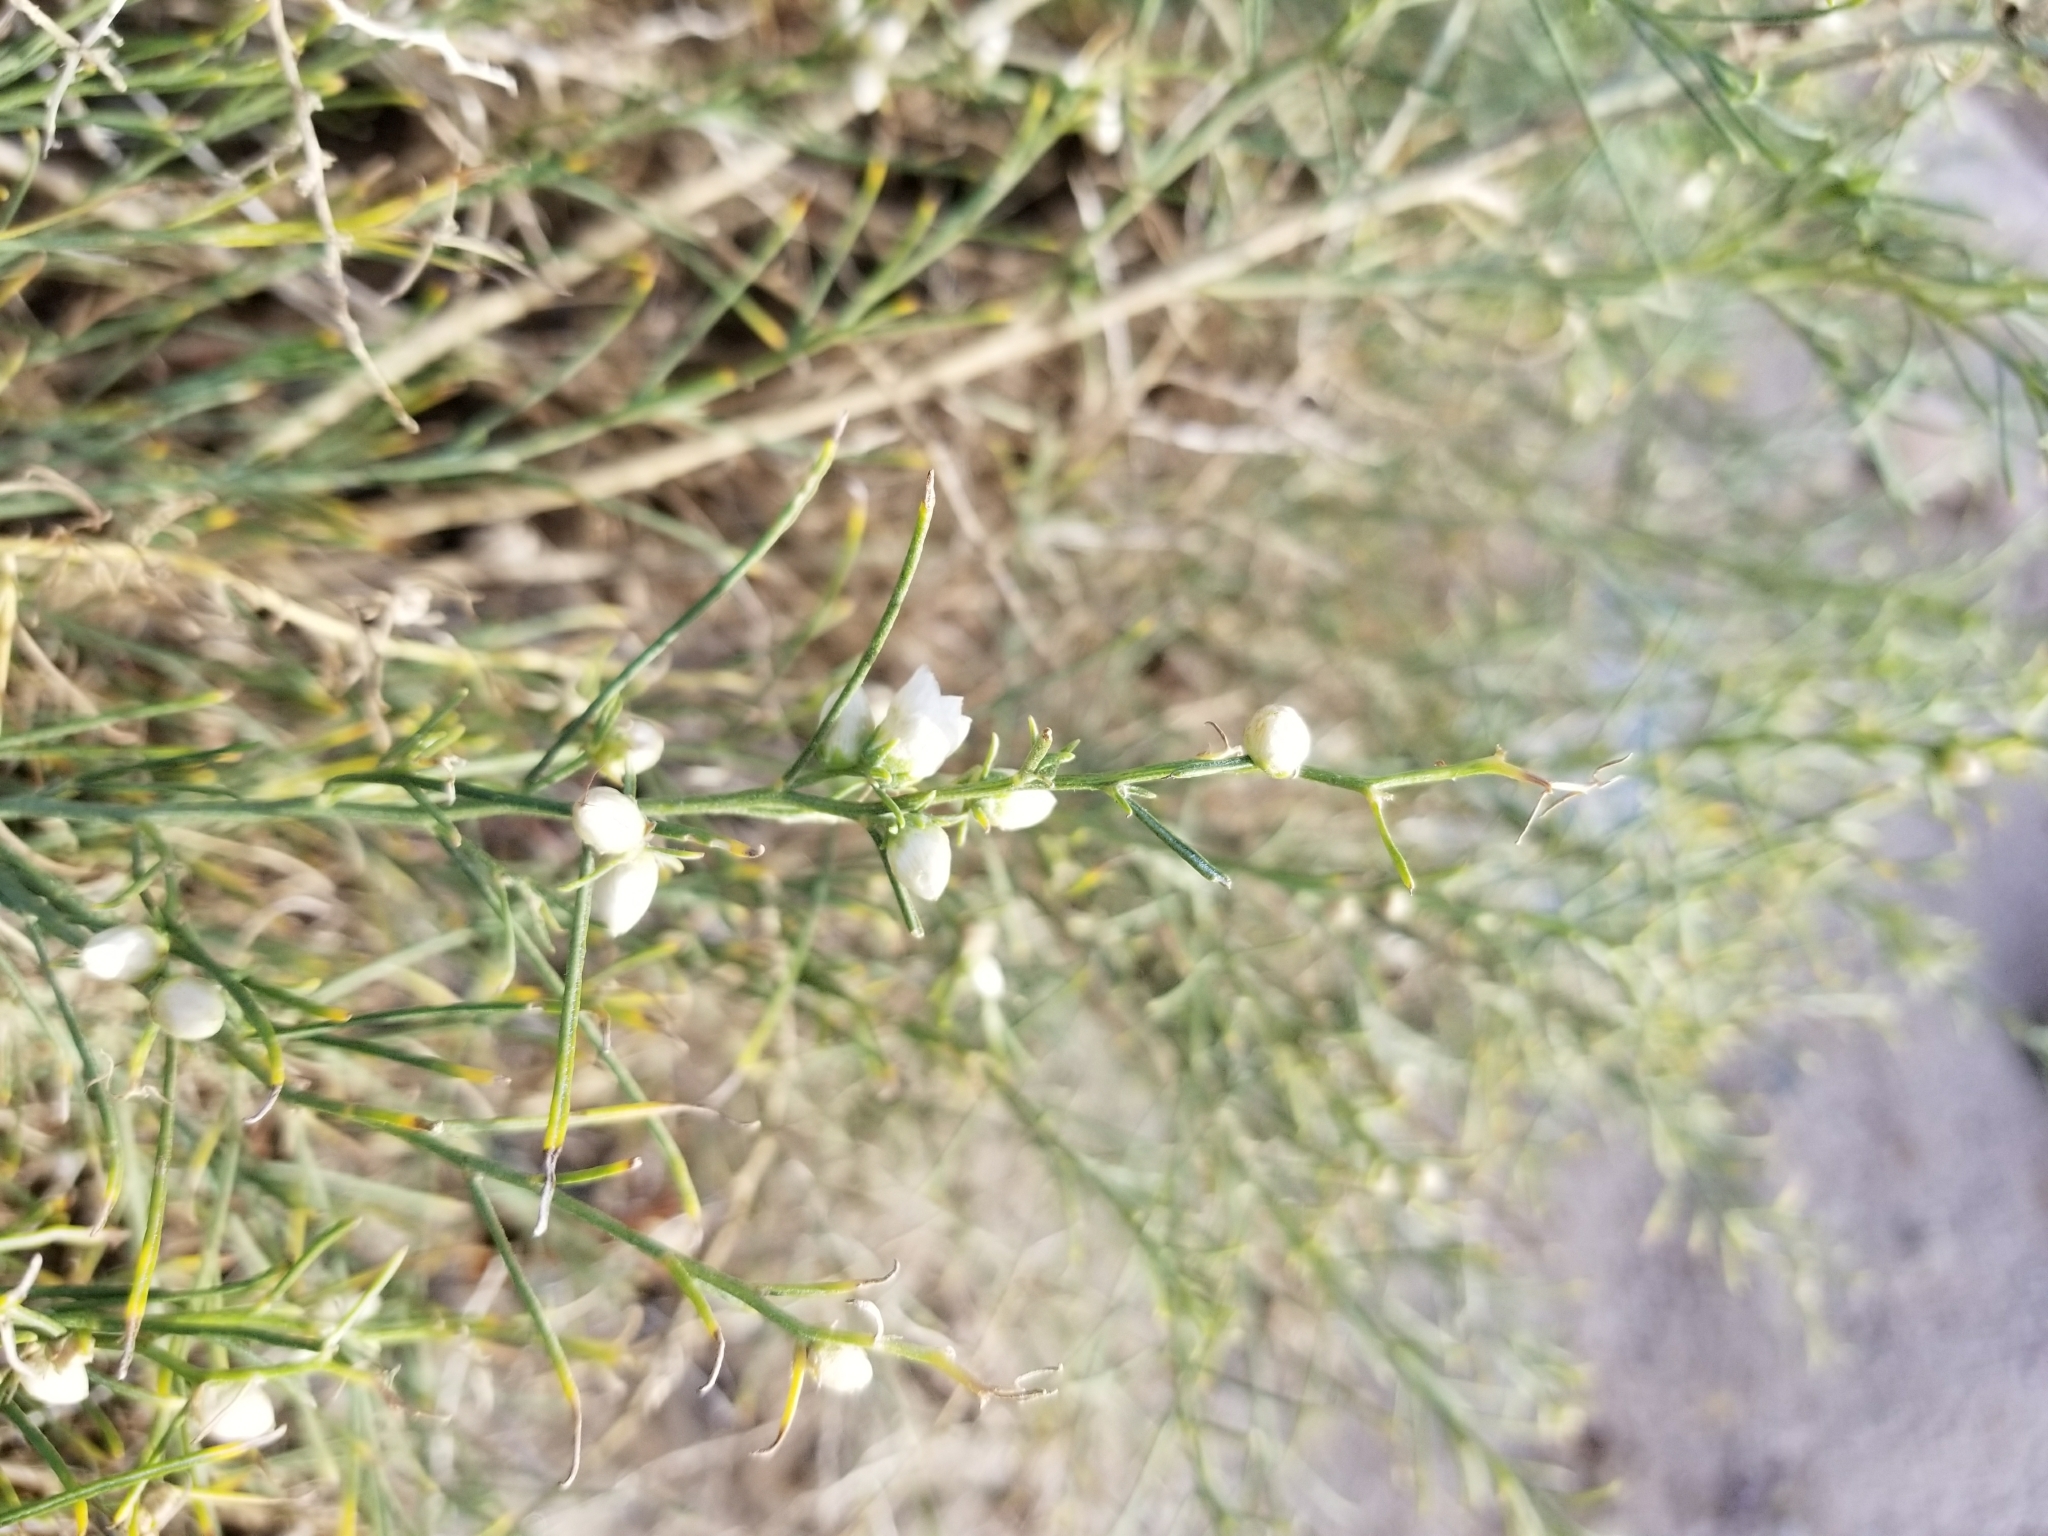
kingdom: Plantae
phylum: Tracheophyta
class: Magnoliopsida
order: Asterales
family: Asteraceae
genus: Ambrosia
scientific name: Ambrosia salsola
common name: Burrobrush
